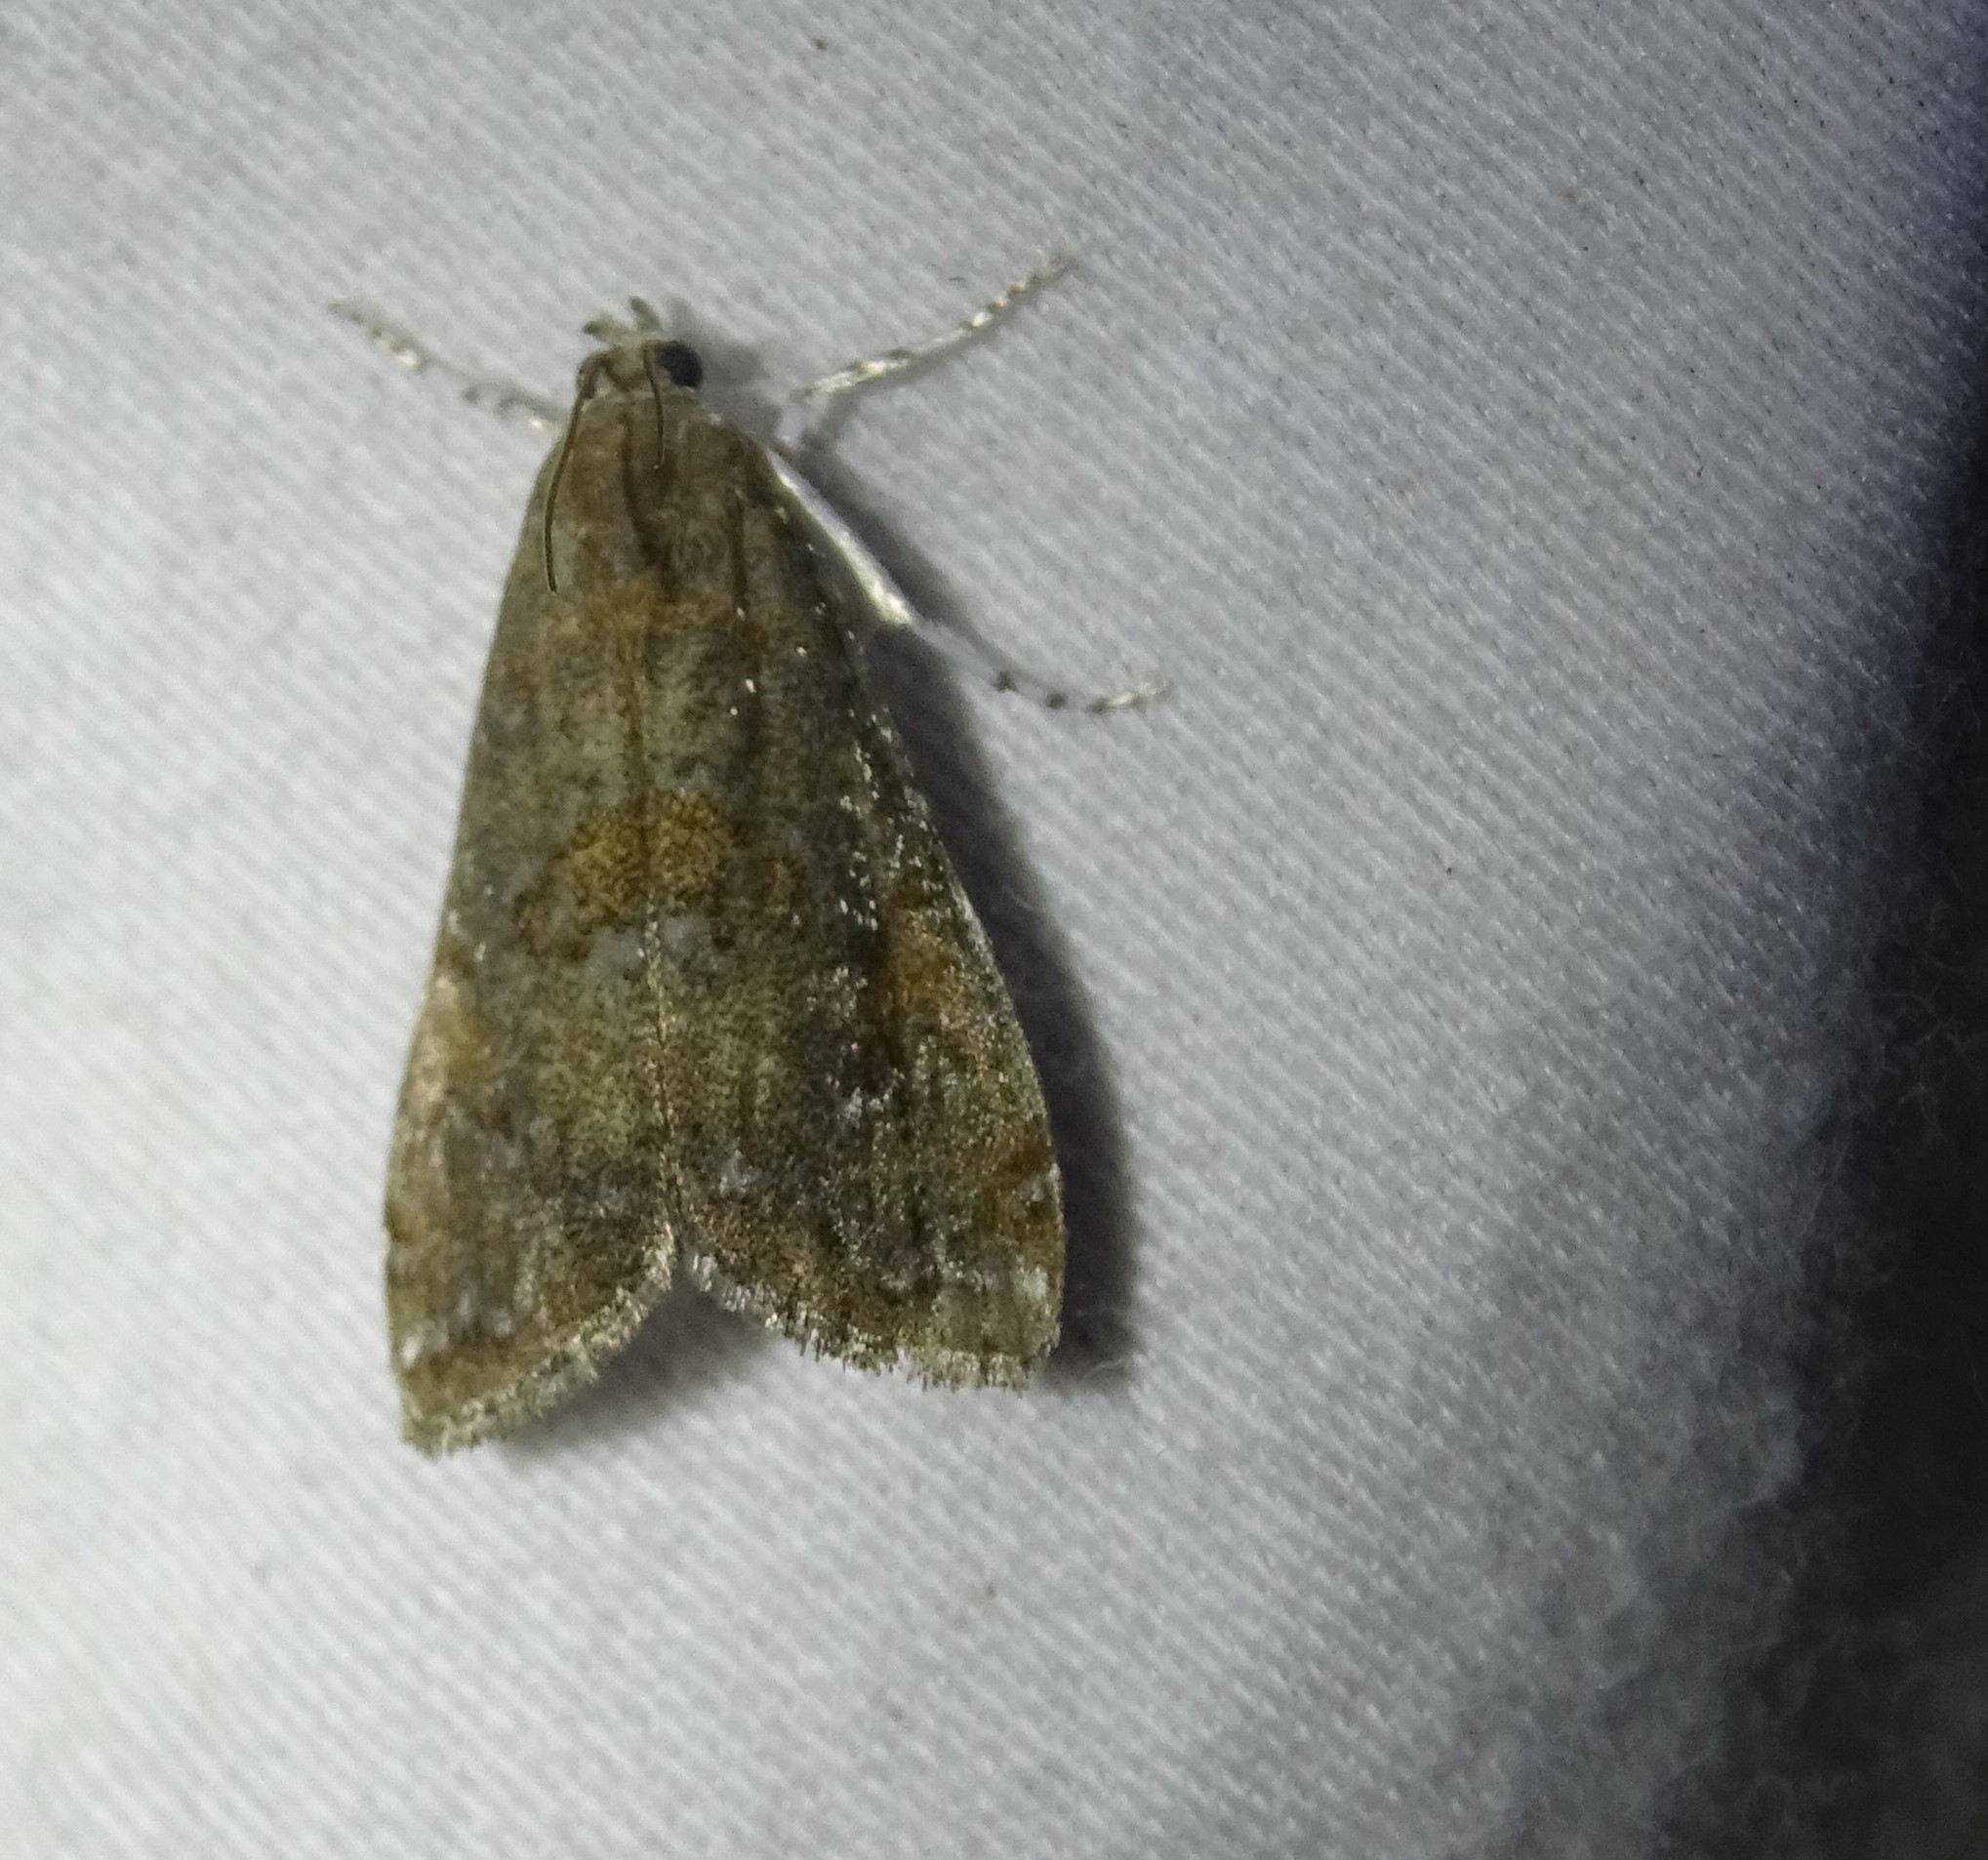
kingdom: Animalia
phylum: Arthropoda
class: Insecta
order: Lepidoptera
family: Crambidae
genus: Elophila
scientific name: Elophila gyralis
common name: Waterlily borer moth
